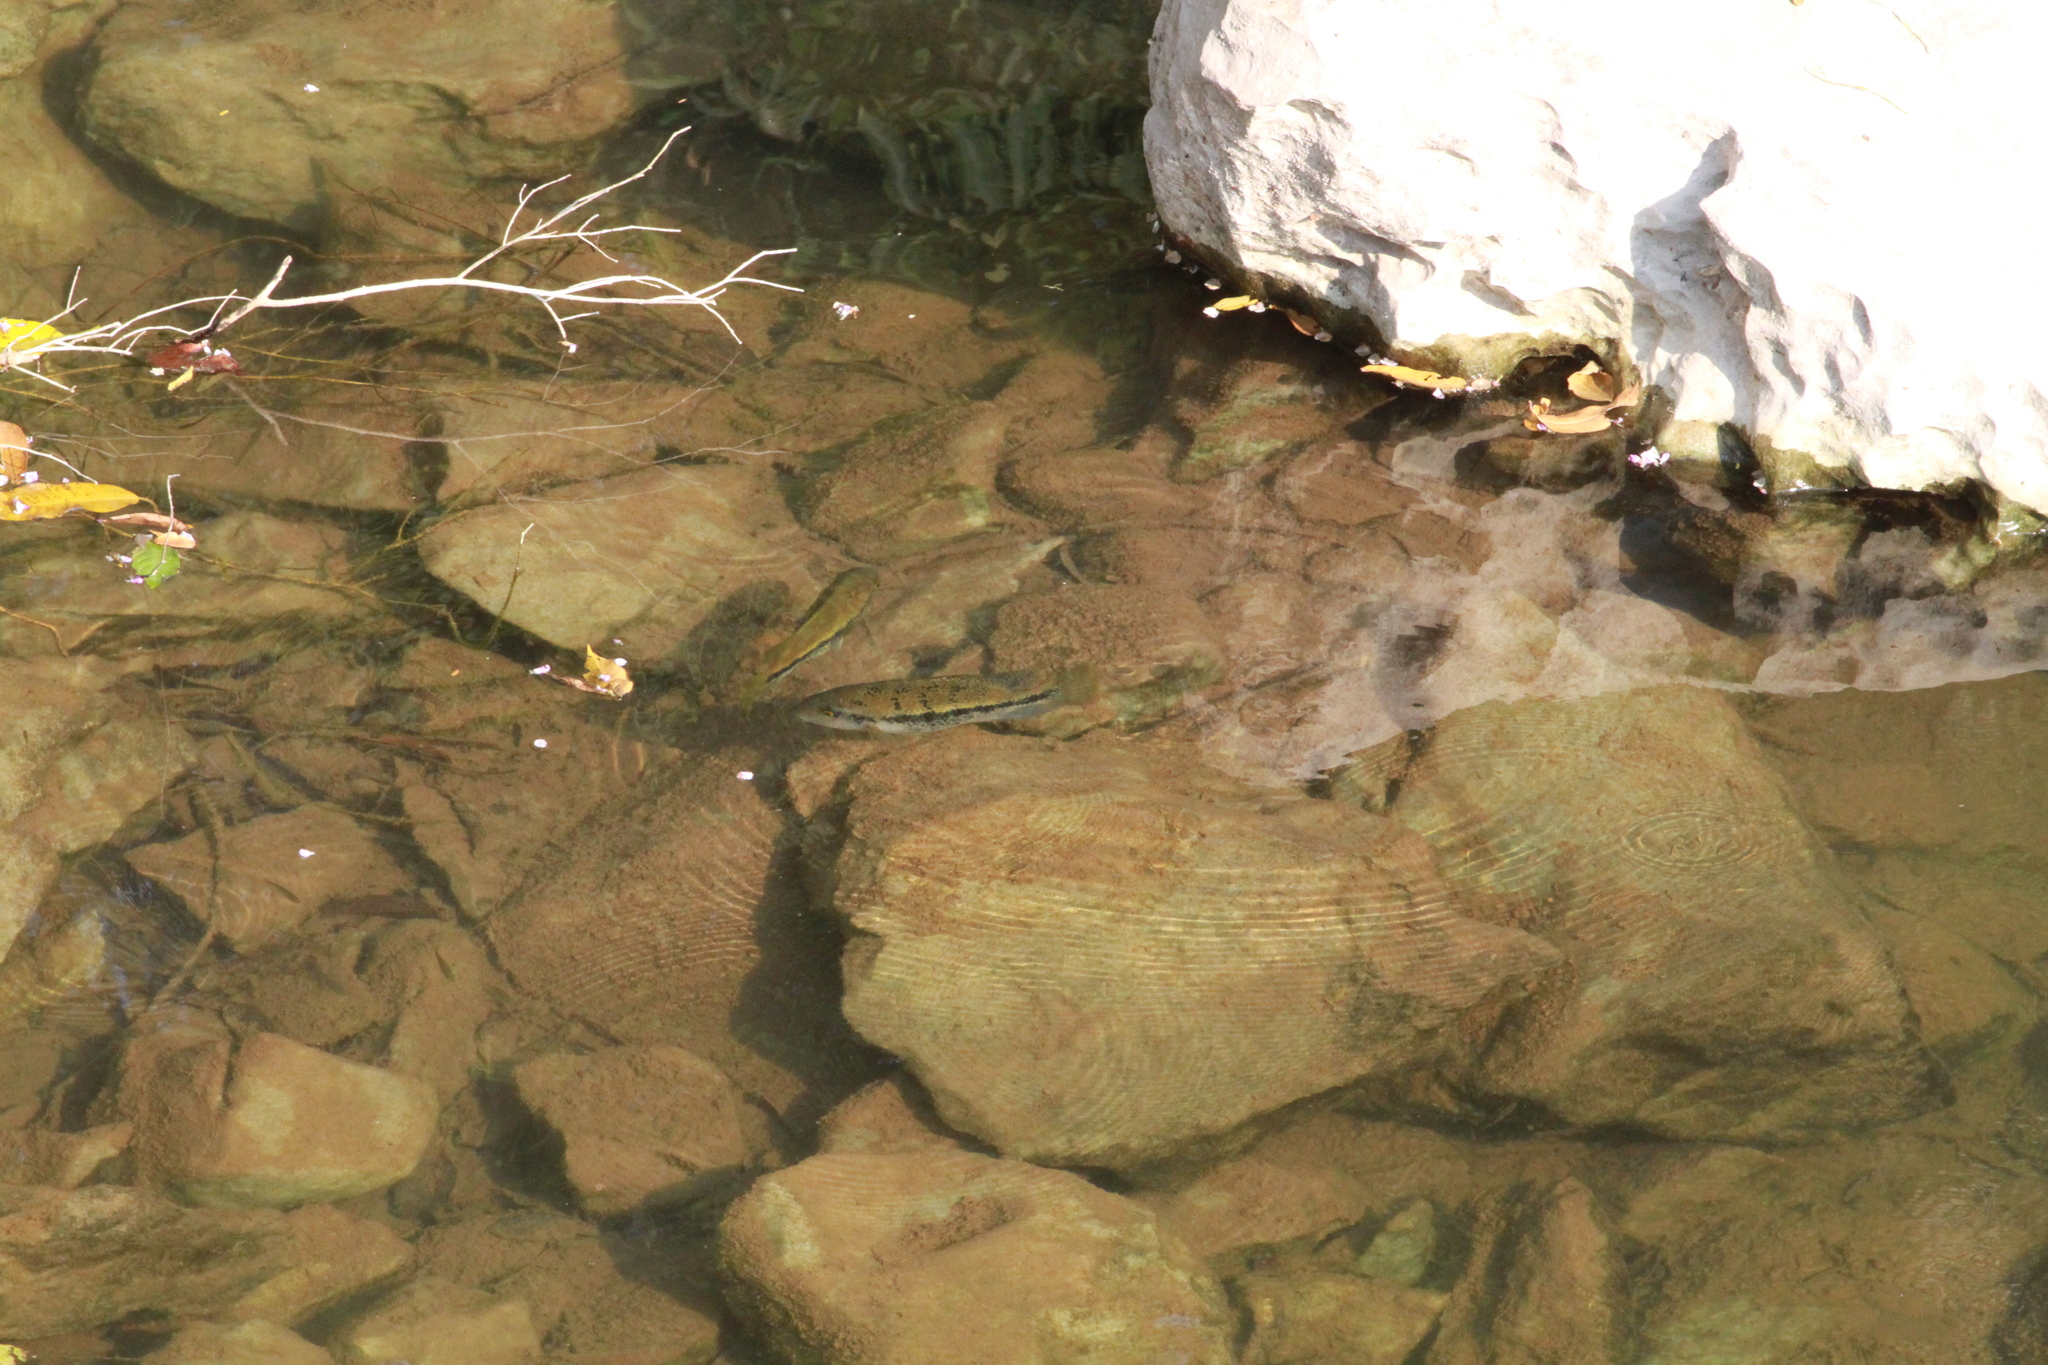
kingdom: Animalia
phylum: Chordata
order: Perciformes
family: Cichlidae
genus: Vieja
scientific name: Vieja zonata
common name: Oaxaca cichlid
